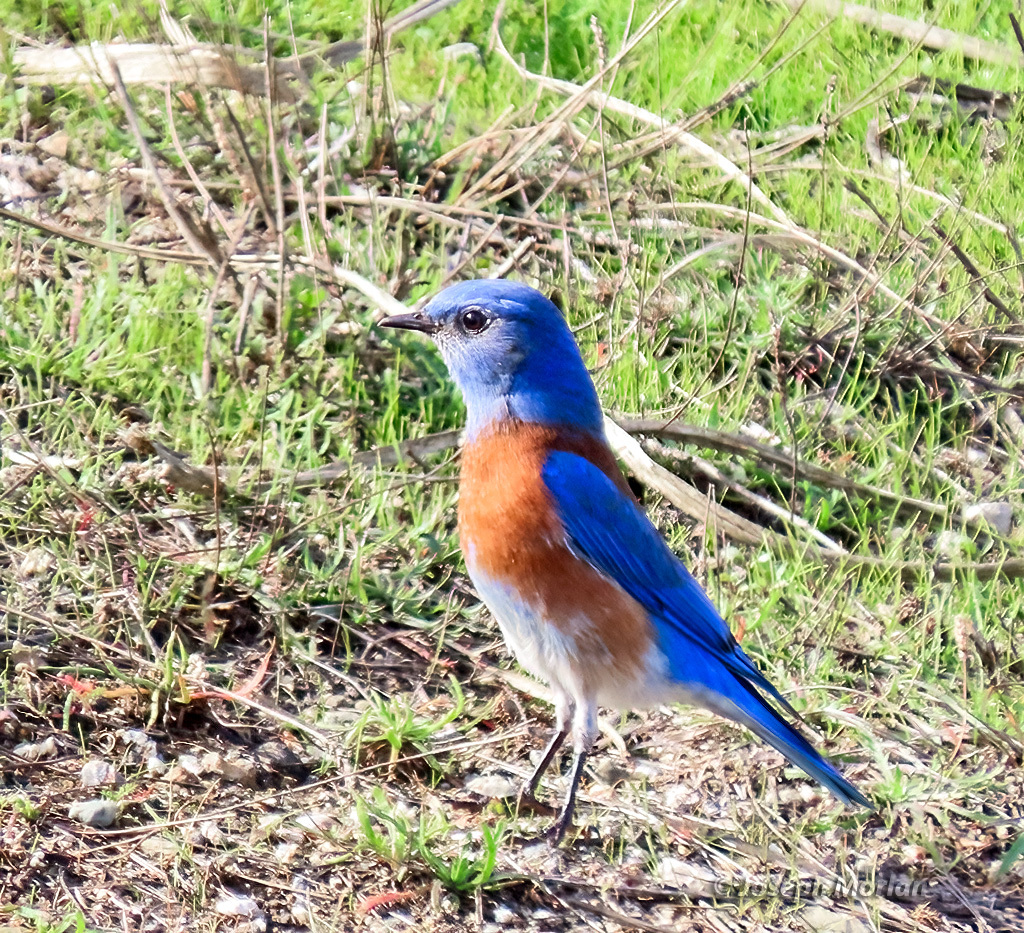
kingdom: Animalia
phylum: Chordata
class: Aves
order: Passeriformes
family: Turdidae
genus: Sialia
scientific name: Sialia mexicana
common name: Western bluebird
